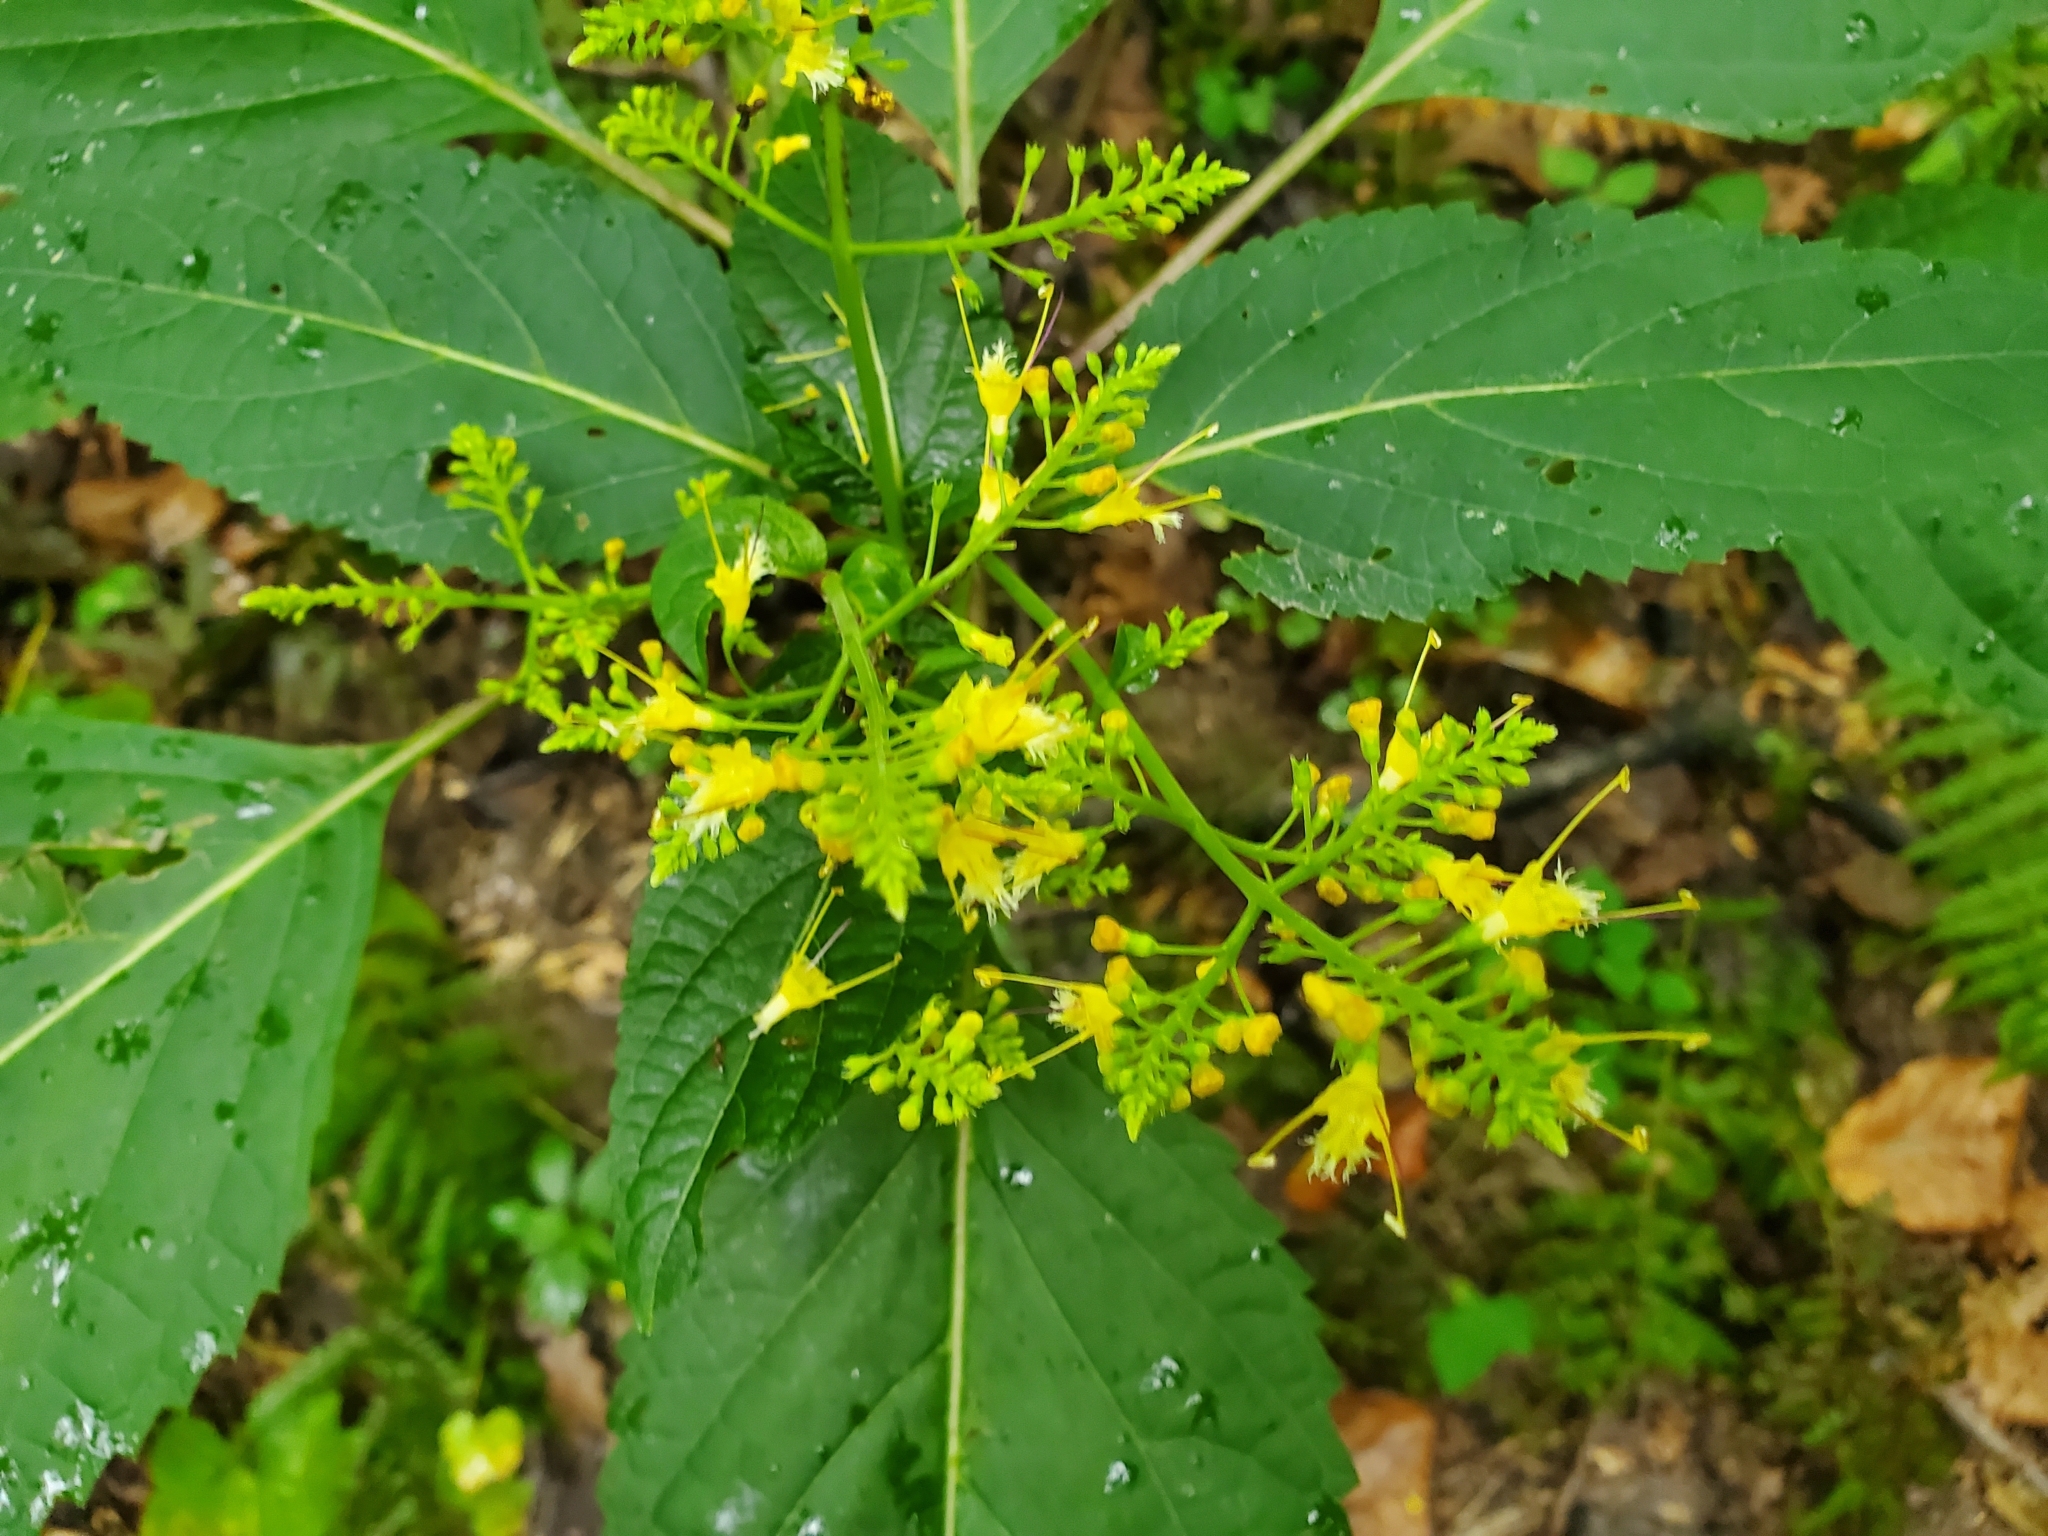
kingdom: Plantae
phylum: Tracheophyta
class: Magnoliopsida
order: Lamiales
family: Lamiaceae
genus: Collinsonia
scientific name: Collinsonia canadensis
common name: Northern horsebalm
